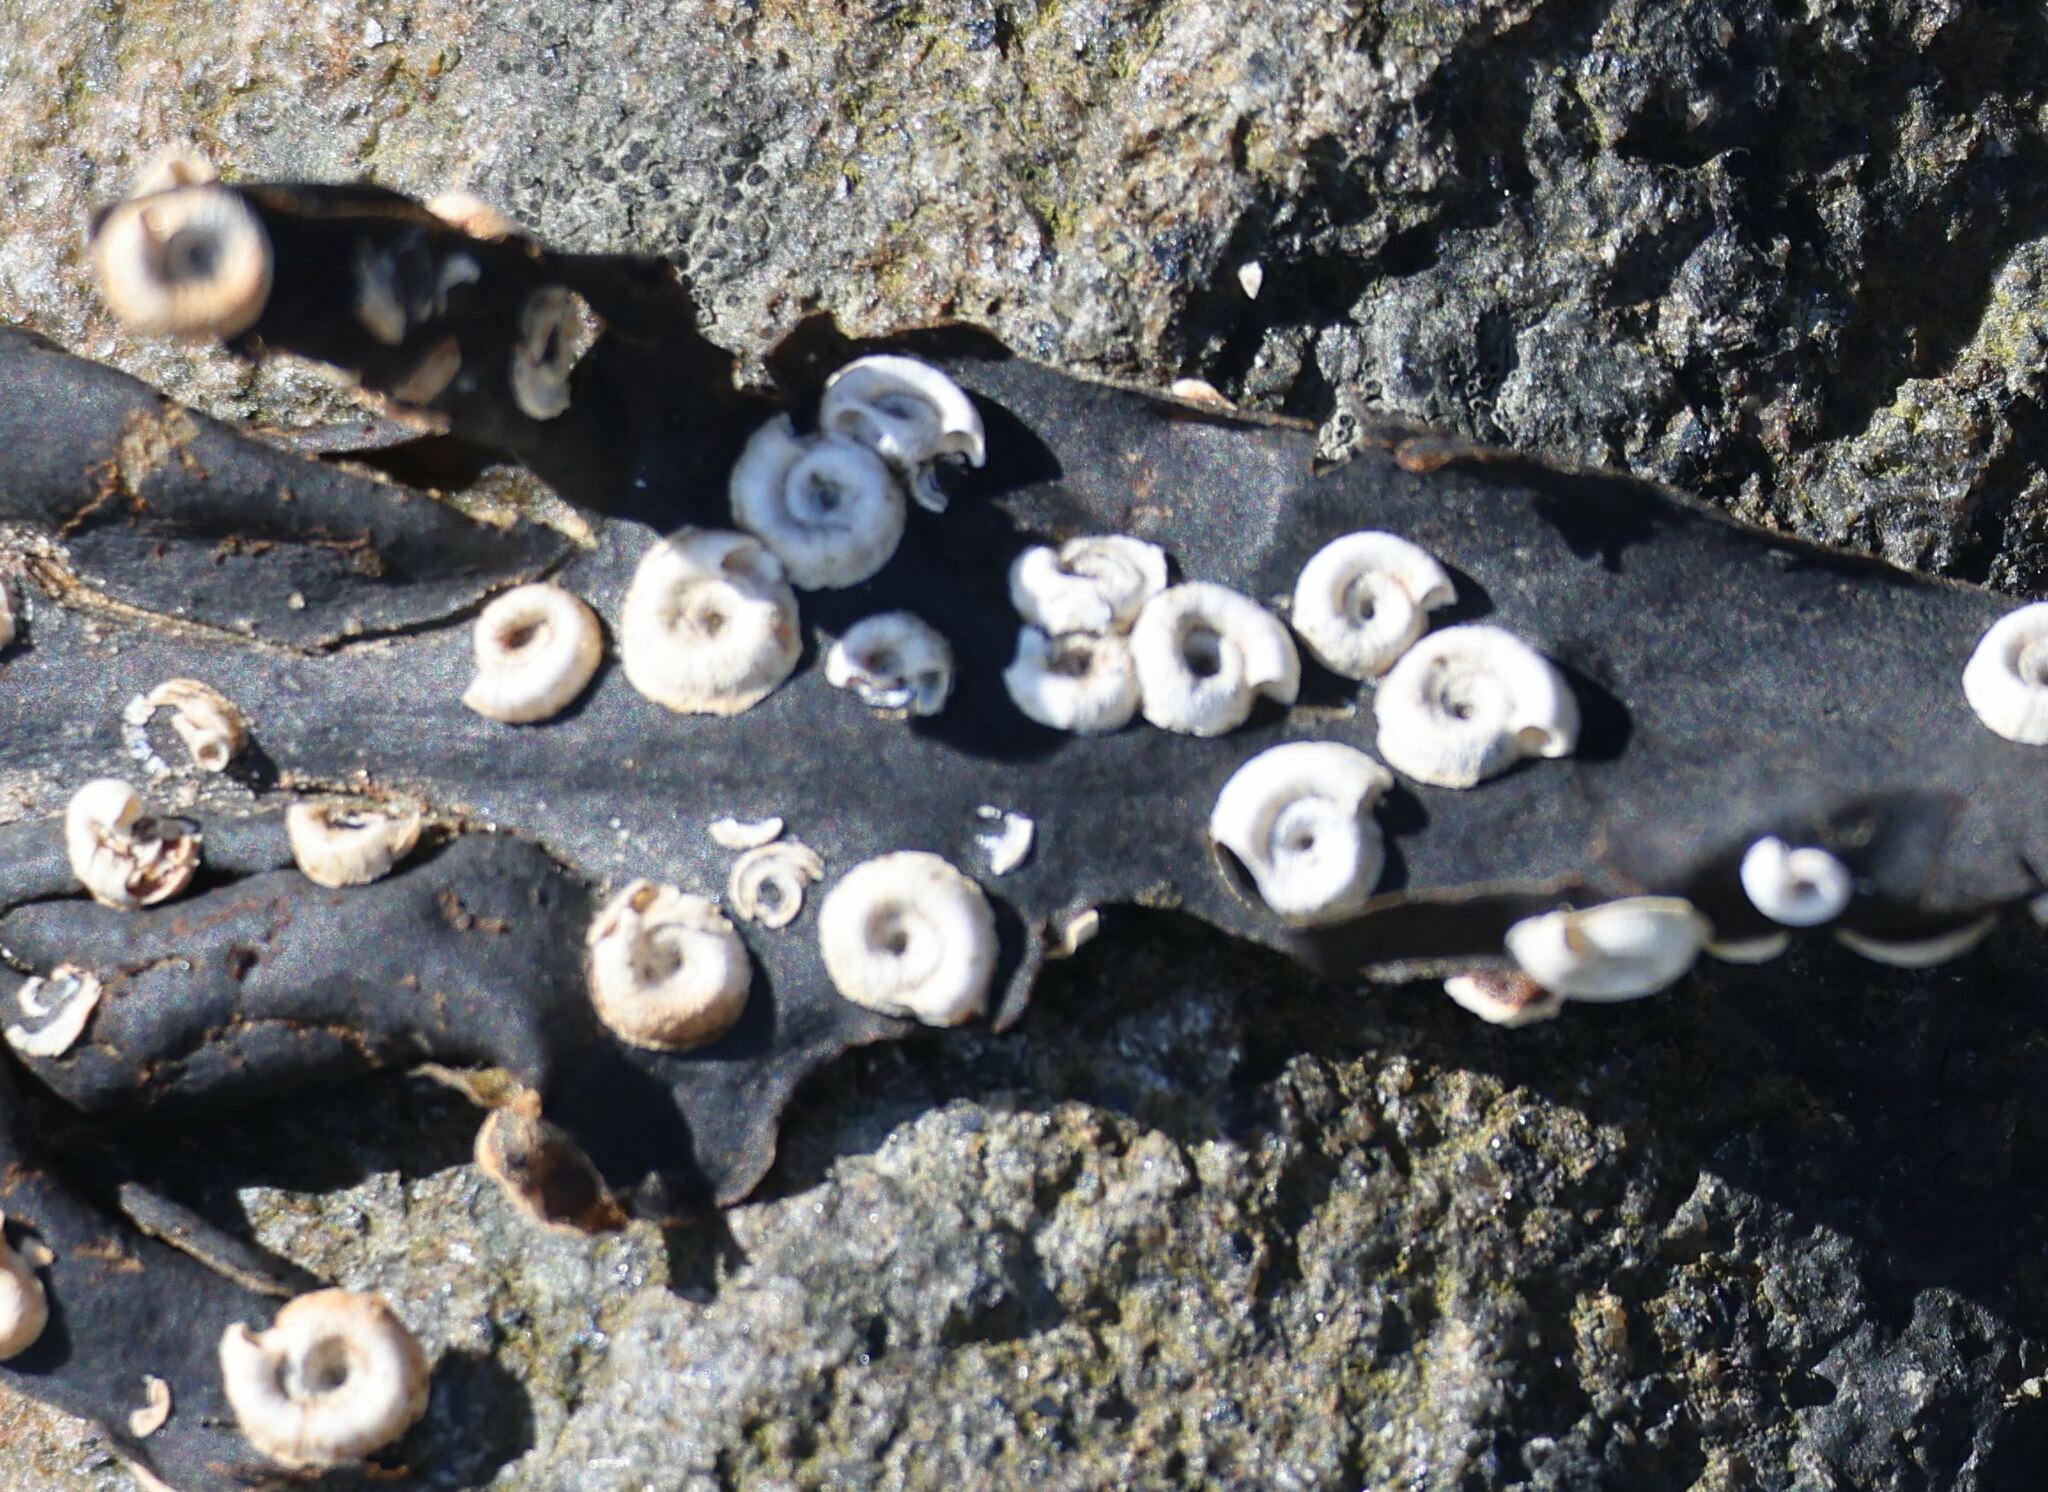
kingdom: Animalia
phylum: Annelida
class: Polychaeta
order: Sabellida
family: Serpulidae
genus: Spirorbis
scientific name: Spirorbis spirorbis
